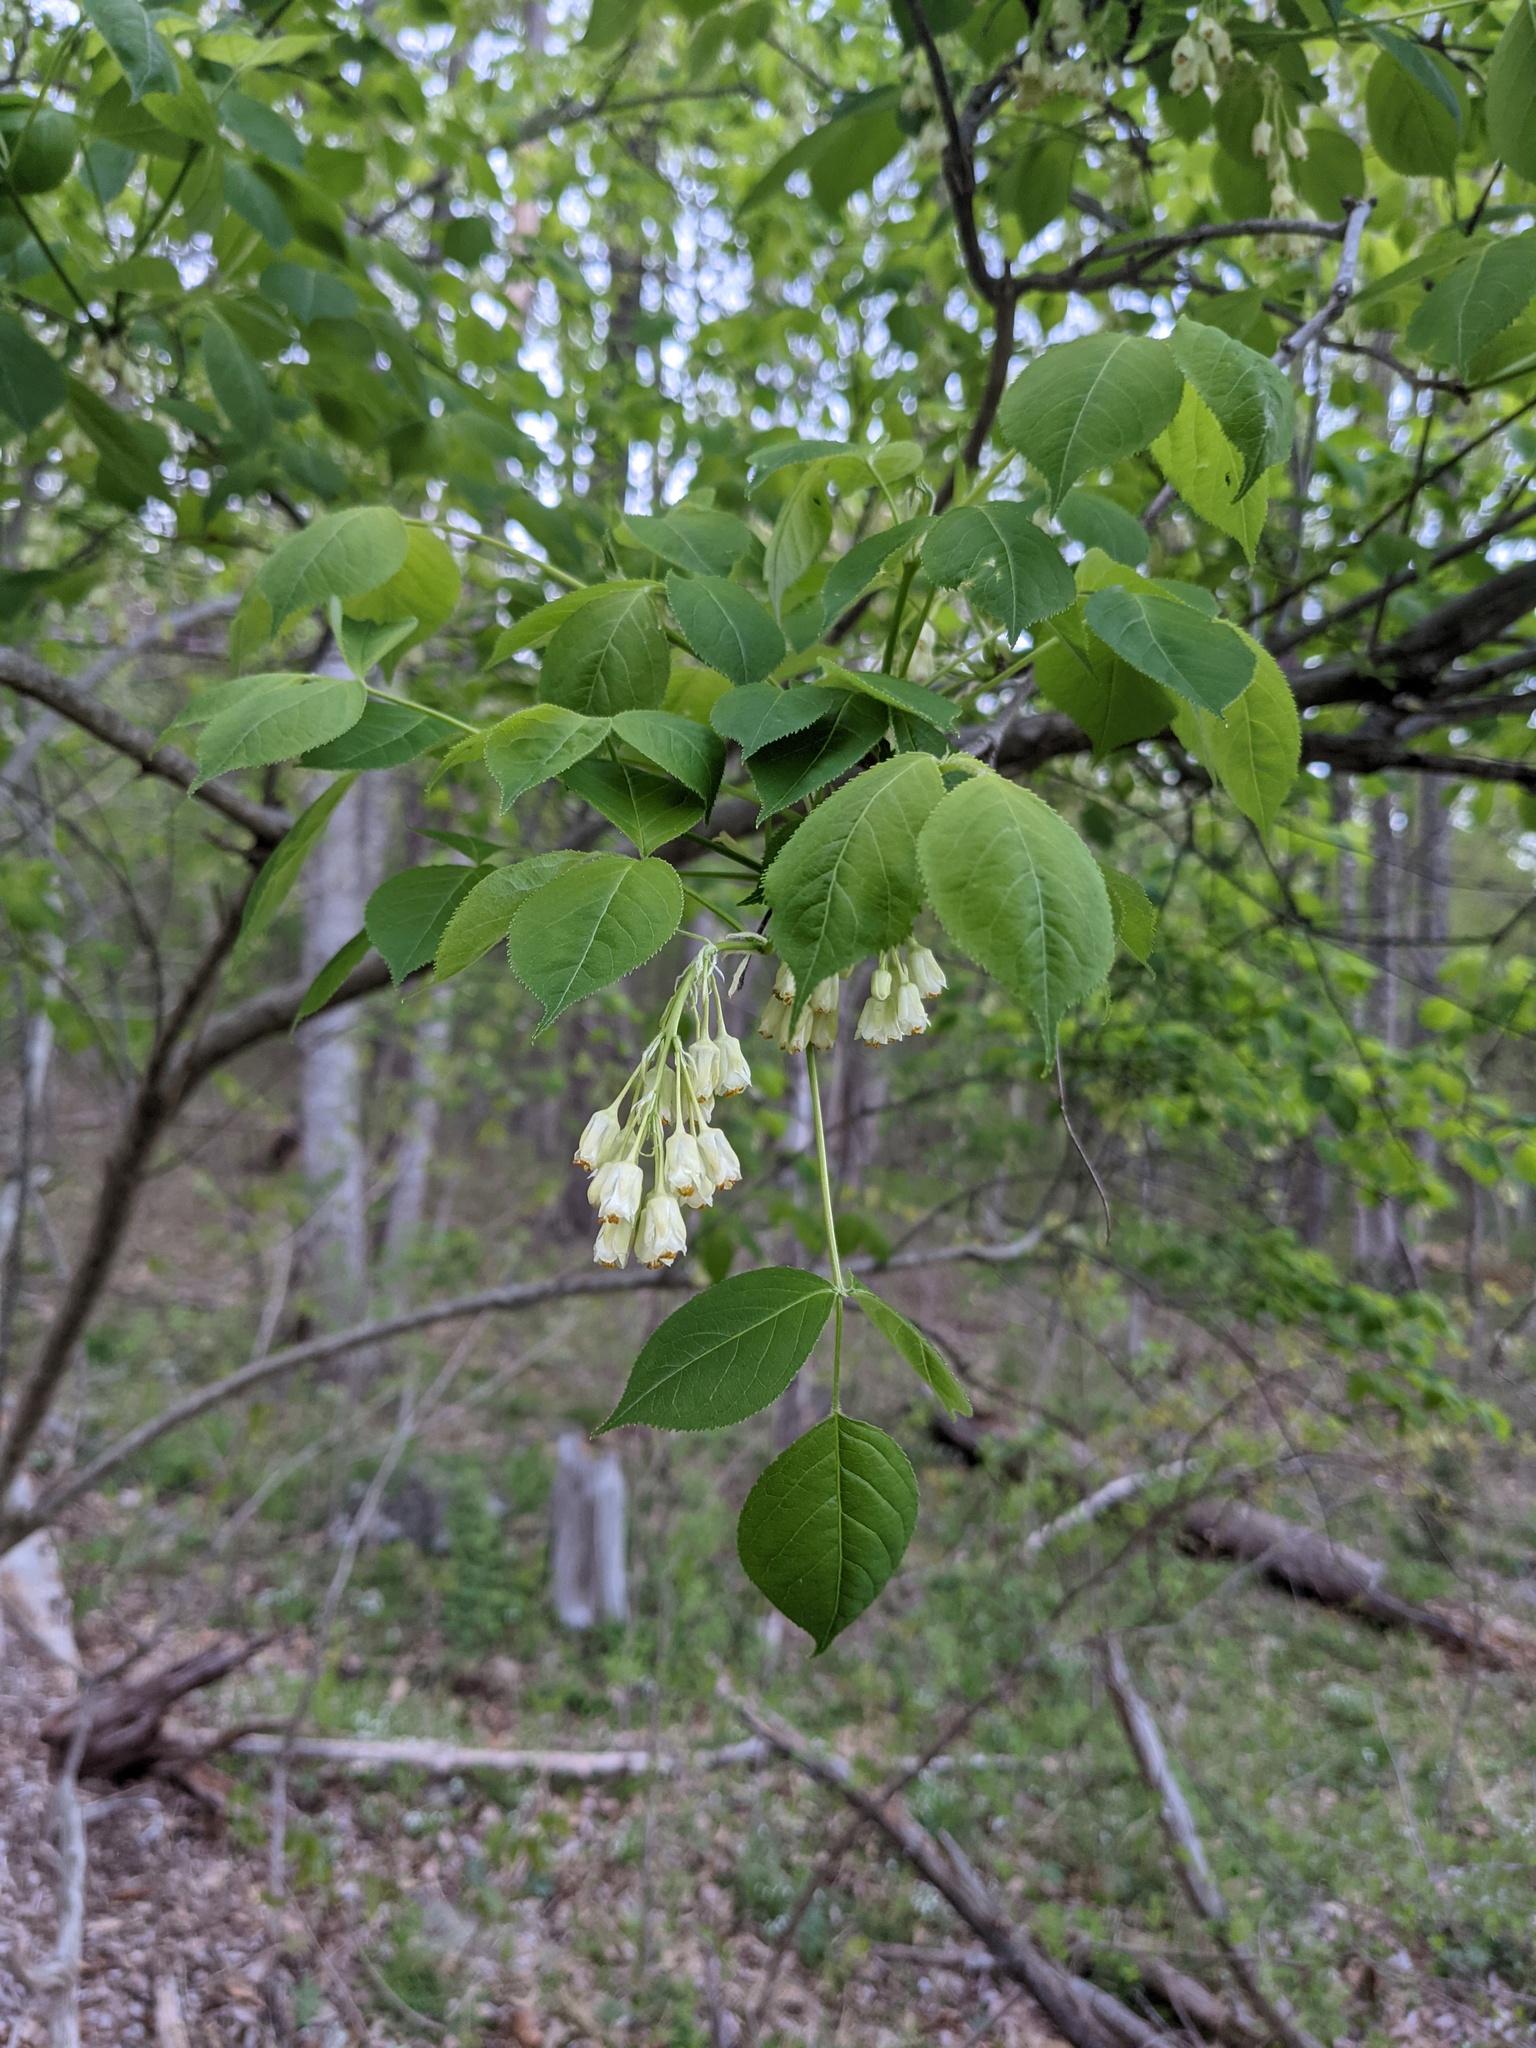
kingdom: Plantae
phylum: Tracheophyta
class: Magnoliopsida
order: Crossosomatales
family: Staphyleaceae
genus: Staphylea
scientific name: Staphylea trifolia
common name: American bladdernut
